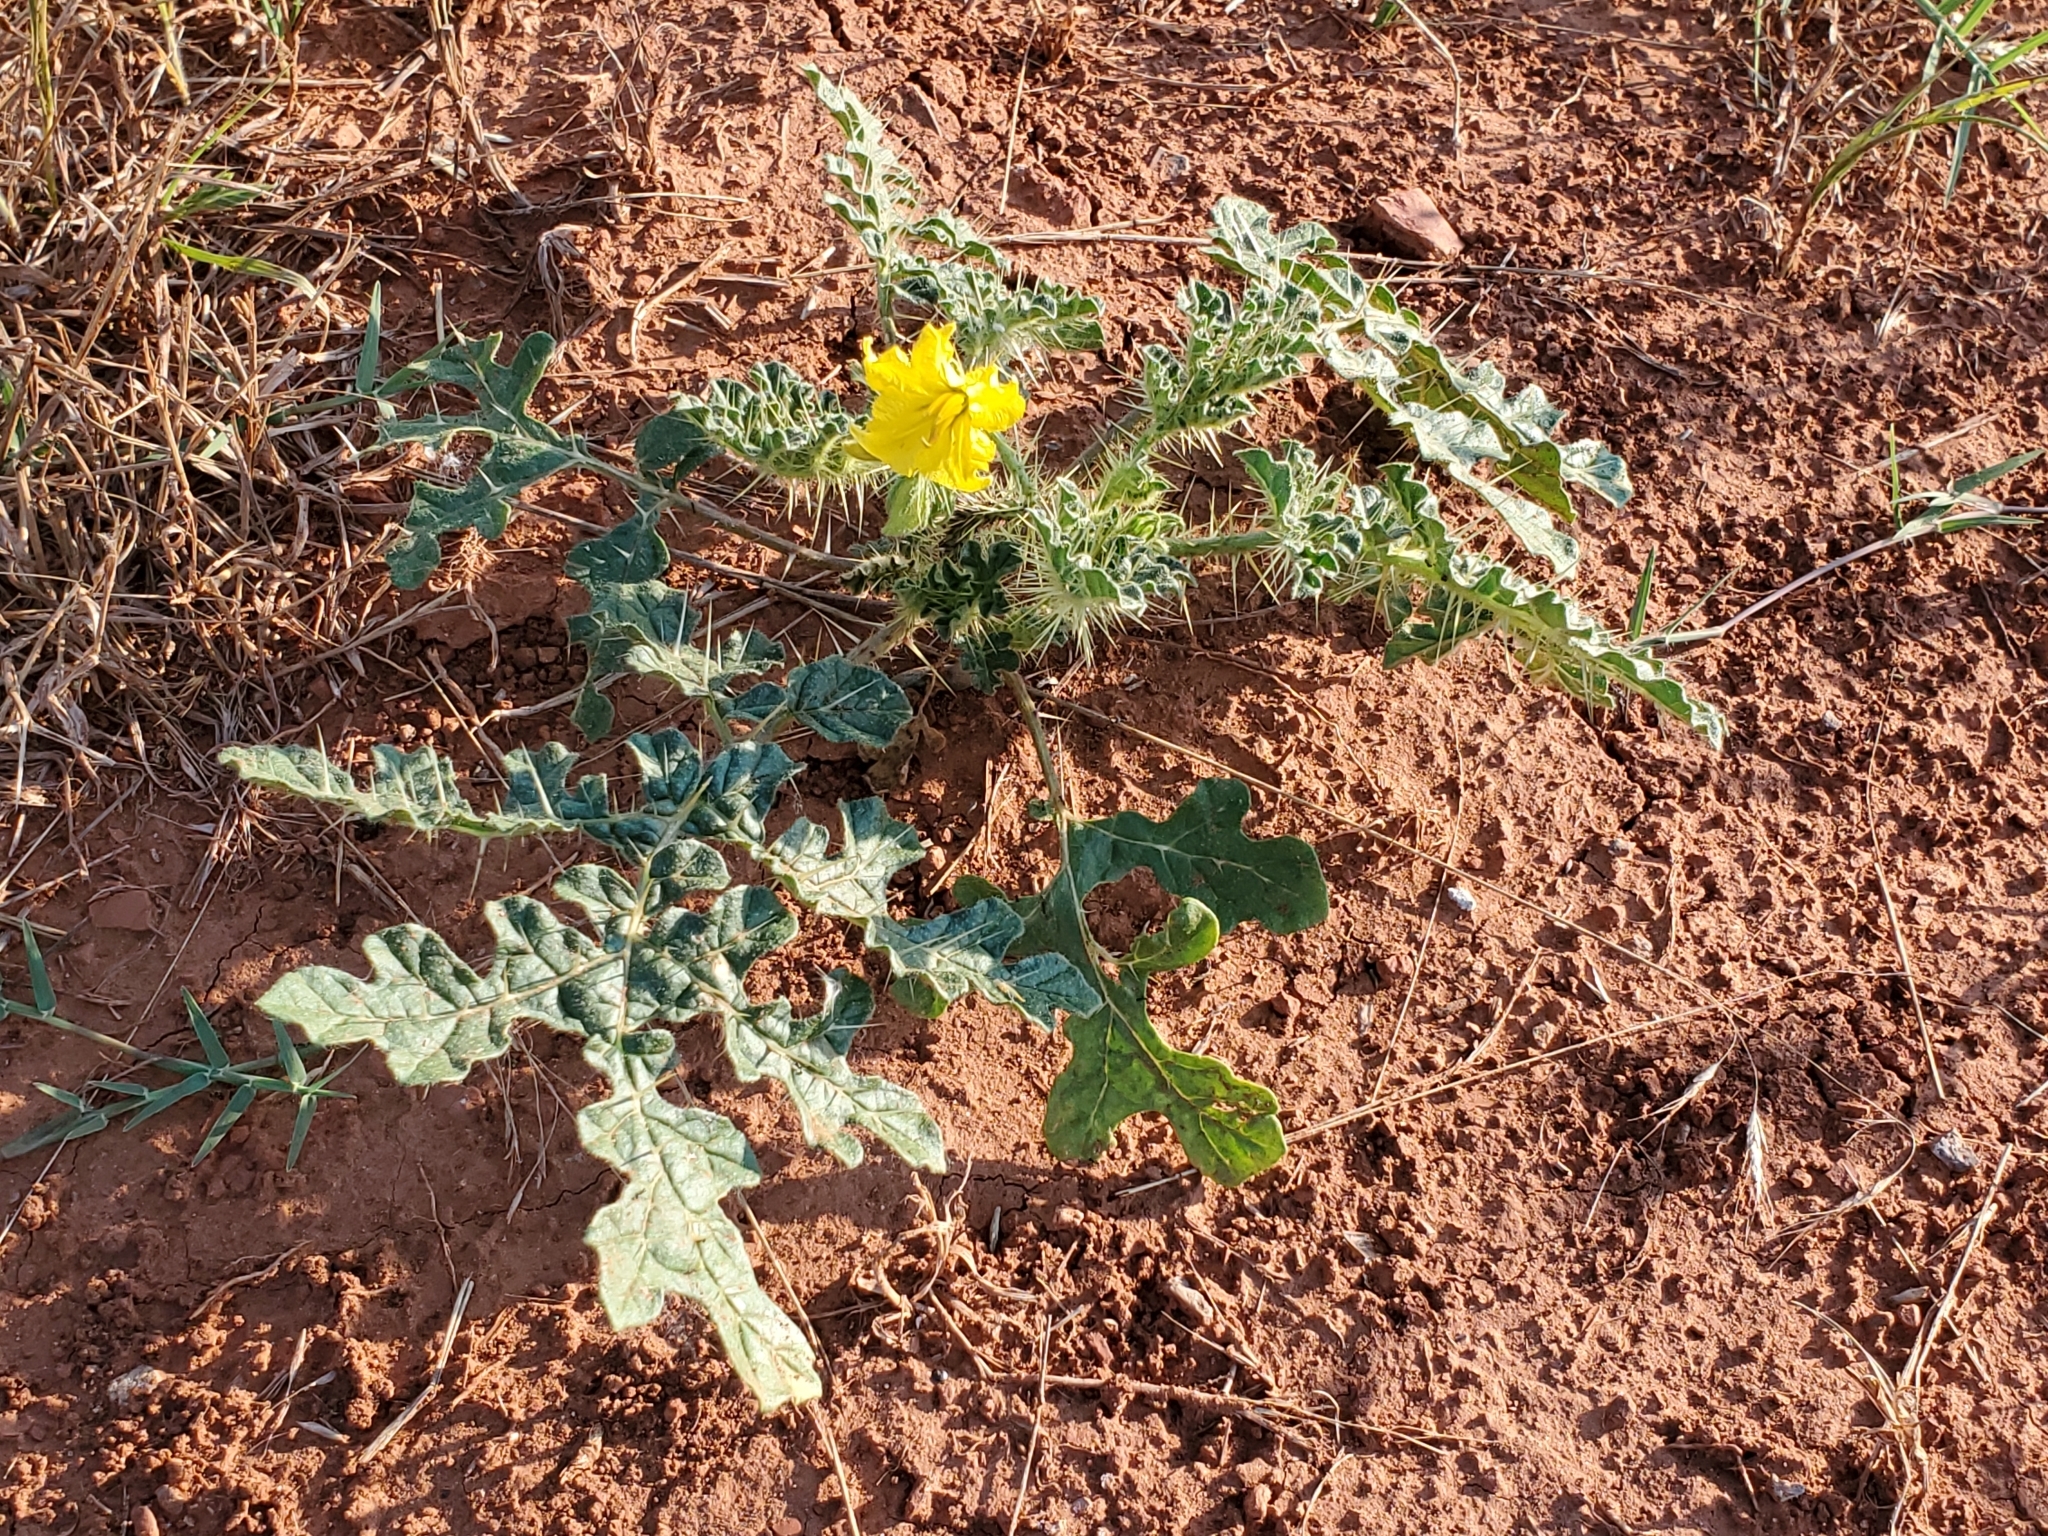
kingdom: Plantae
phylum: Tracheophyta
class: Magnoliopsida
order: Solanales
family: Solanaceae
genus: Solanum
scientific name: Solanum angustifolium
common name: Buffalobur nightshade
